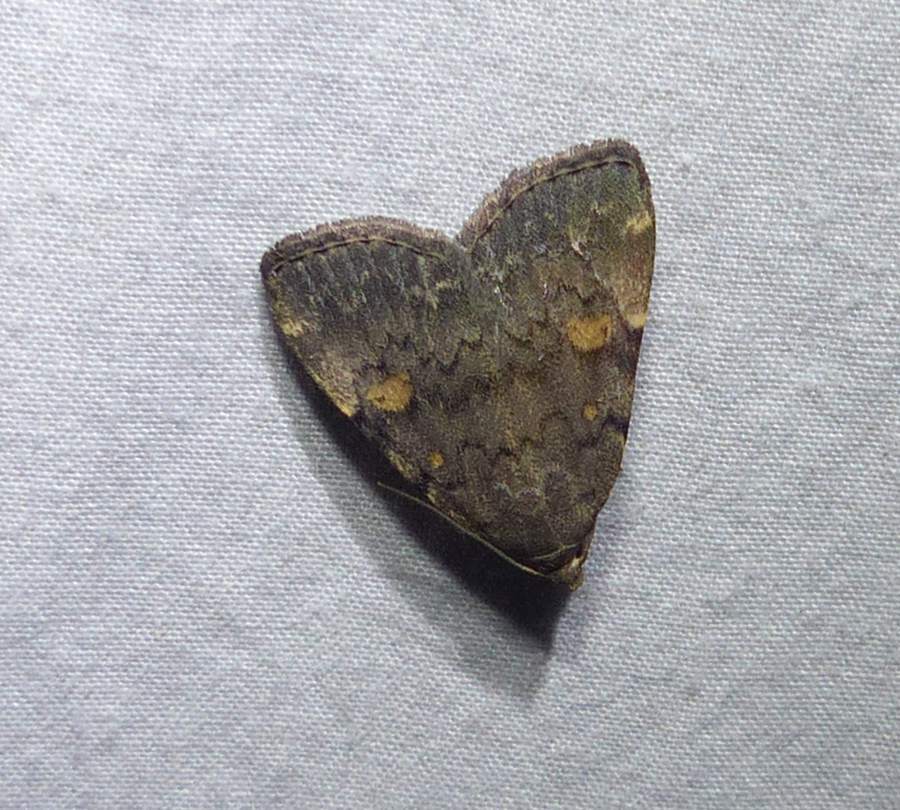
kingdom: Animalia
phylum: Arthropoda
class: Insecta
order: Lepidoptera
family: Erebidae
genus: Idia
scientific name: Idia aemula
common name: Common idia moth
